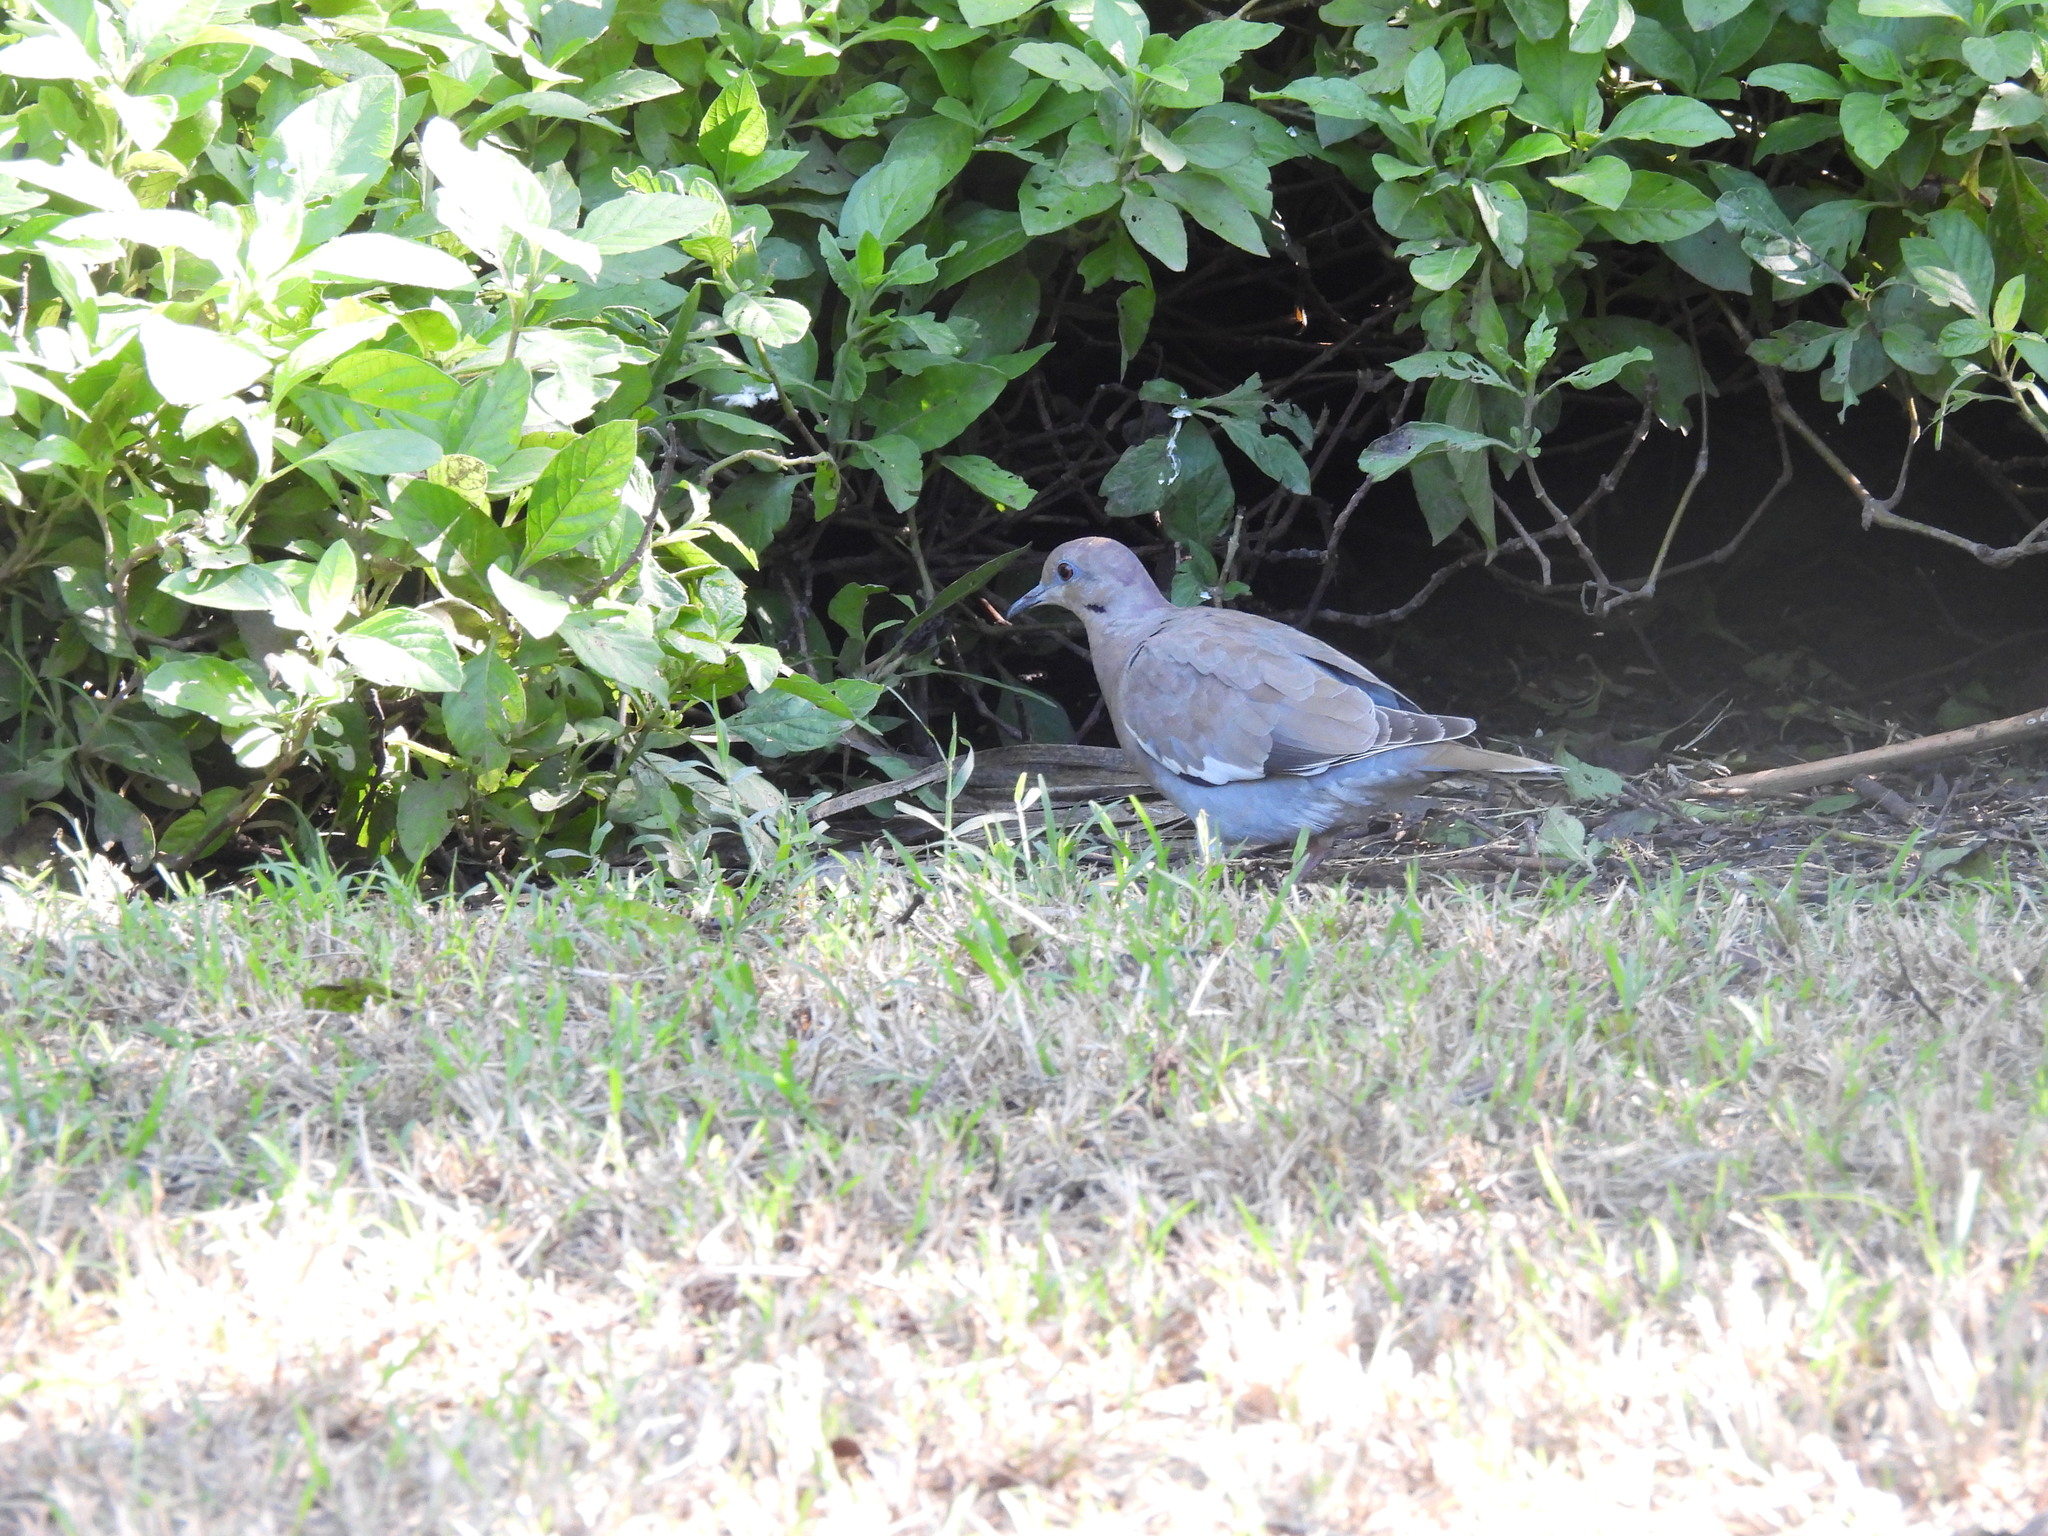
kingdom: Animalia
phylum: Chordata
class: Aves
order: Columbiformes
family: Columbidae
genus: Zenaida
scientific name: Zenaida asiatica
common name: White-winged dove
